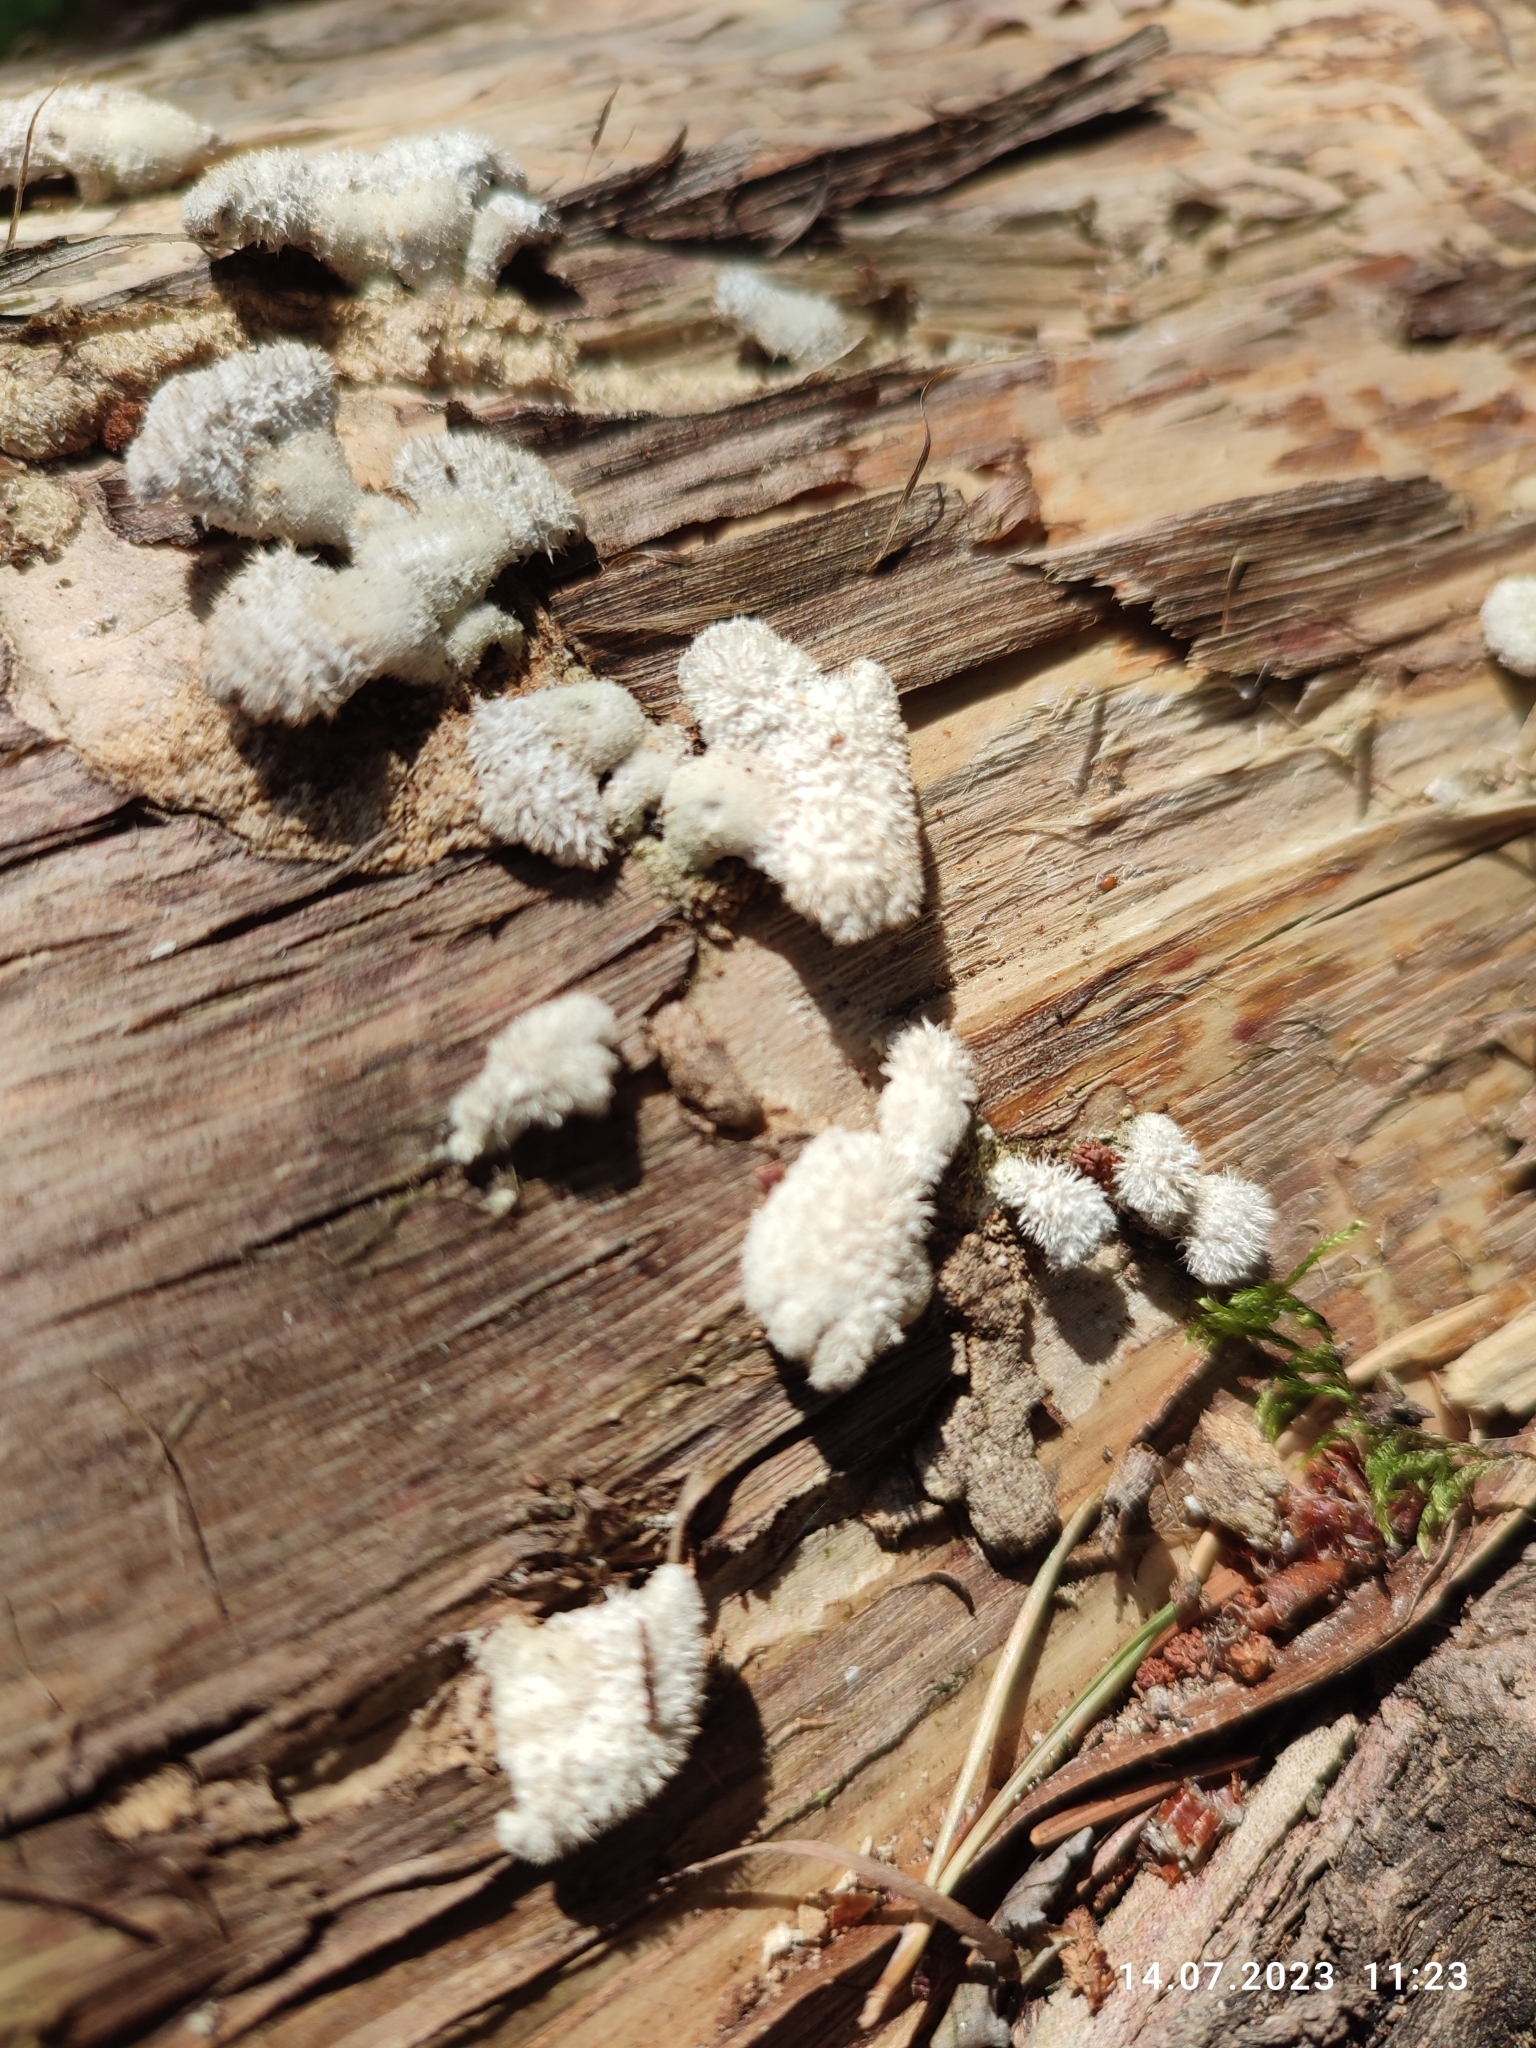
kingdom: Fungi
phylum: Basidiomycota
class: Agaricomycetes
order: Agaricales
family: Schizophyllaceae
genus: Schizophyllum
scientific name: Schizophyllum commune
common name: Common porecrust
